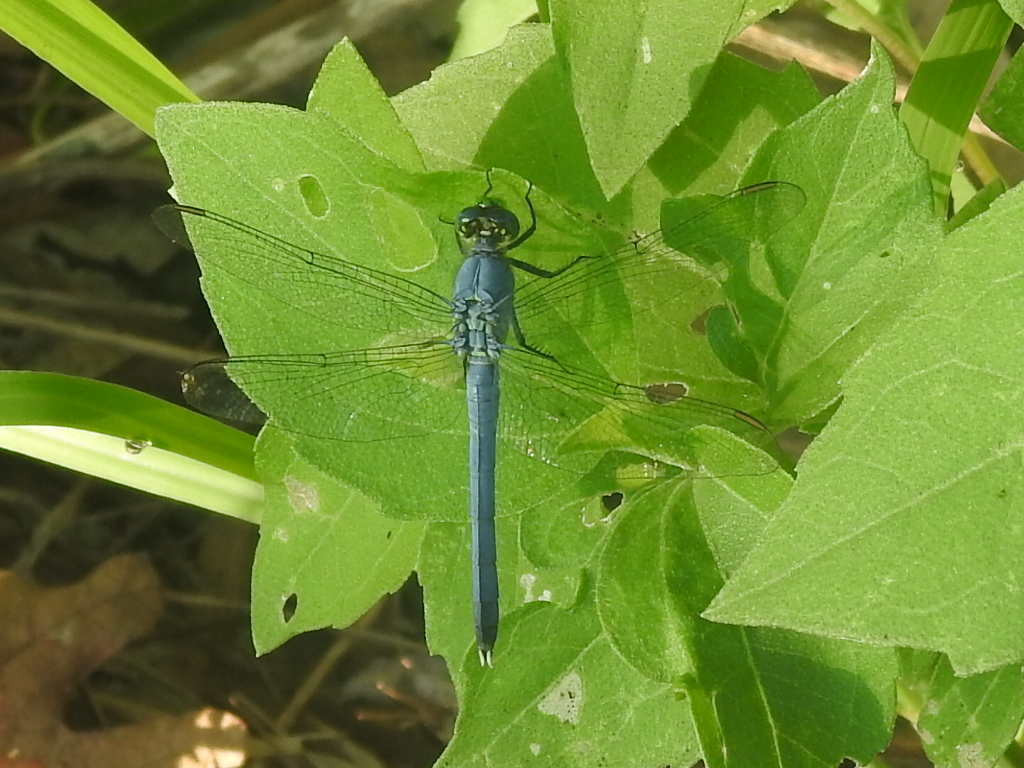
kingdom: Animalia
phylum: Arthropoda
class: Insecta
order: Odonata
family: Libellulidae
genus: Erythemis
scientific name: Erythemis simplicicollis
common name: Eastern pondhawk
